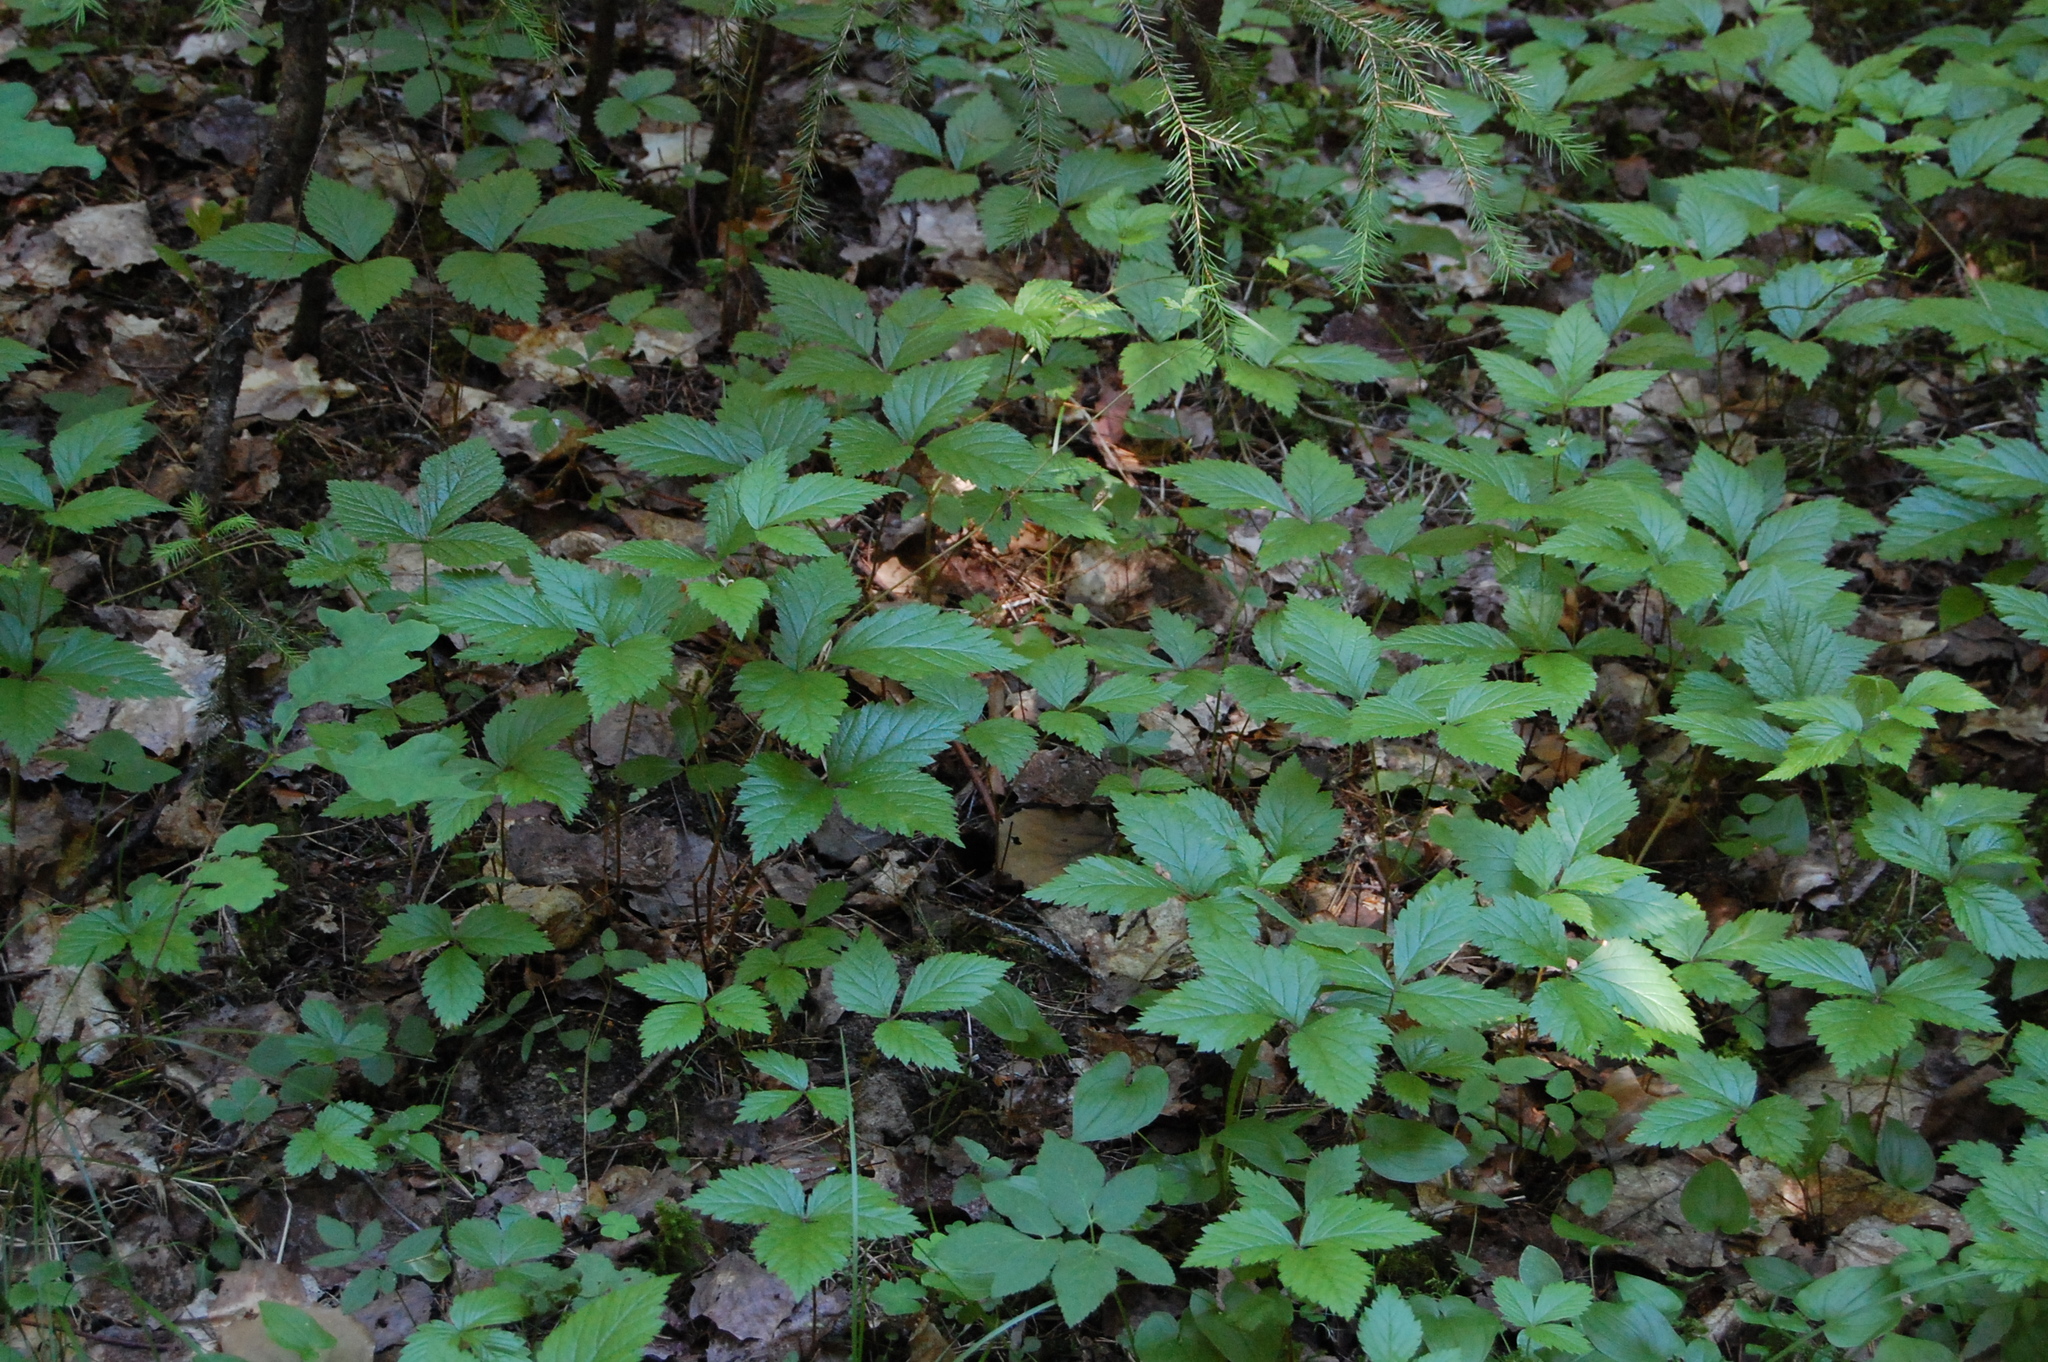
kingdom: Plantae
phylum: Tracheophyta
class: Magnoliopsida
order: Rosales
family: Rosaceae
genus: Rubus
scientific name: Rubus saxatilis
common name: Stone bramble
